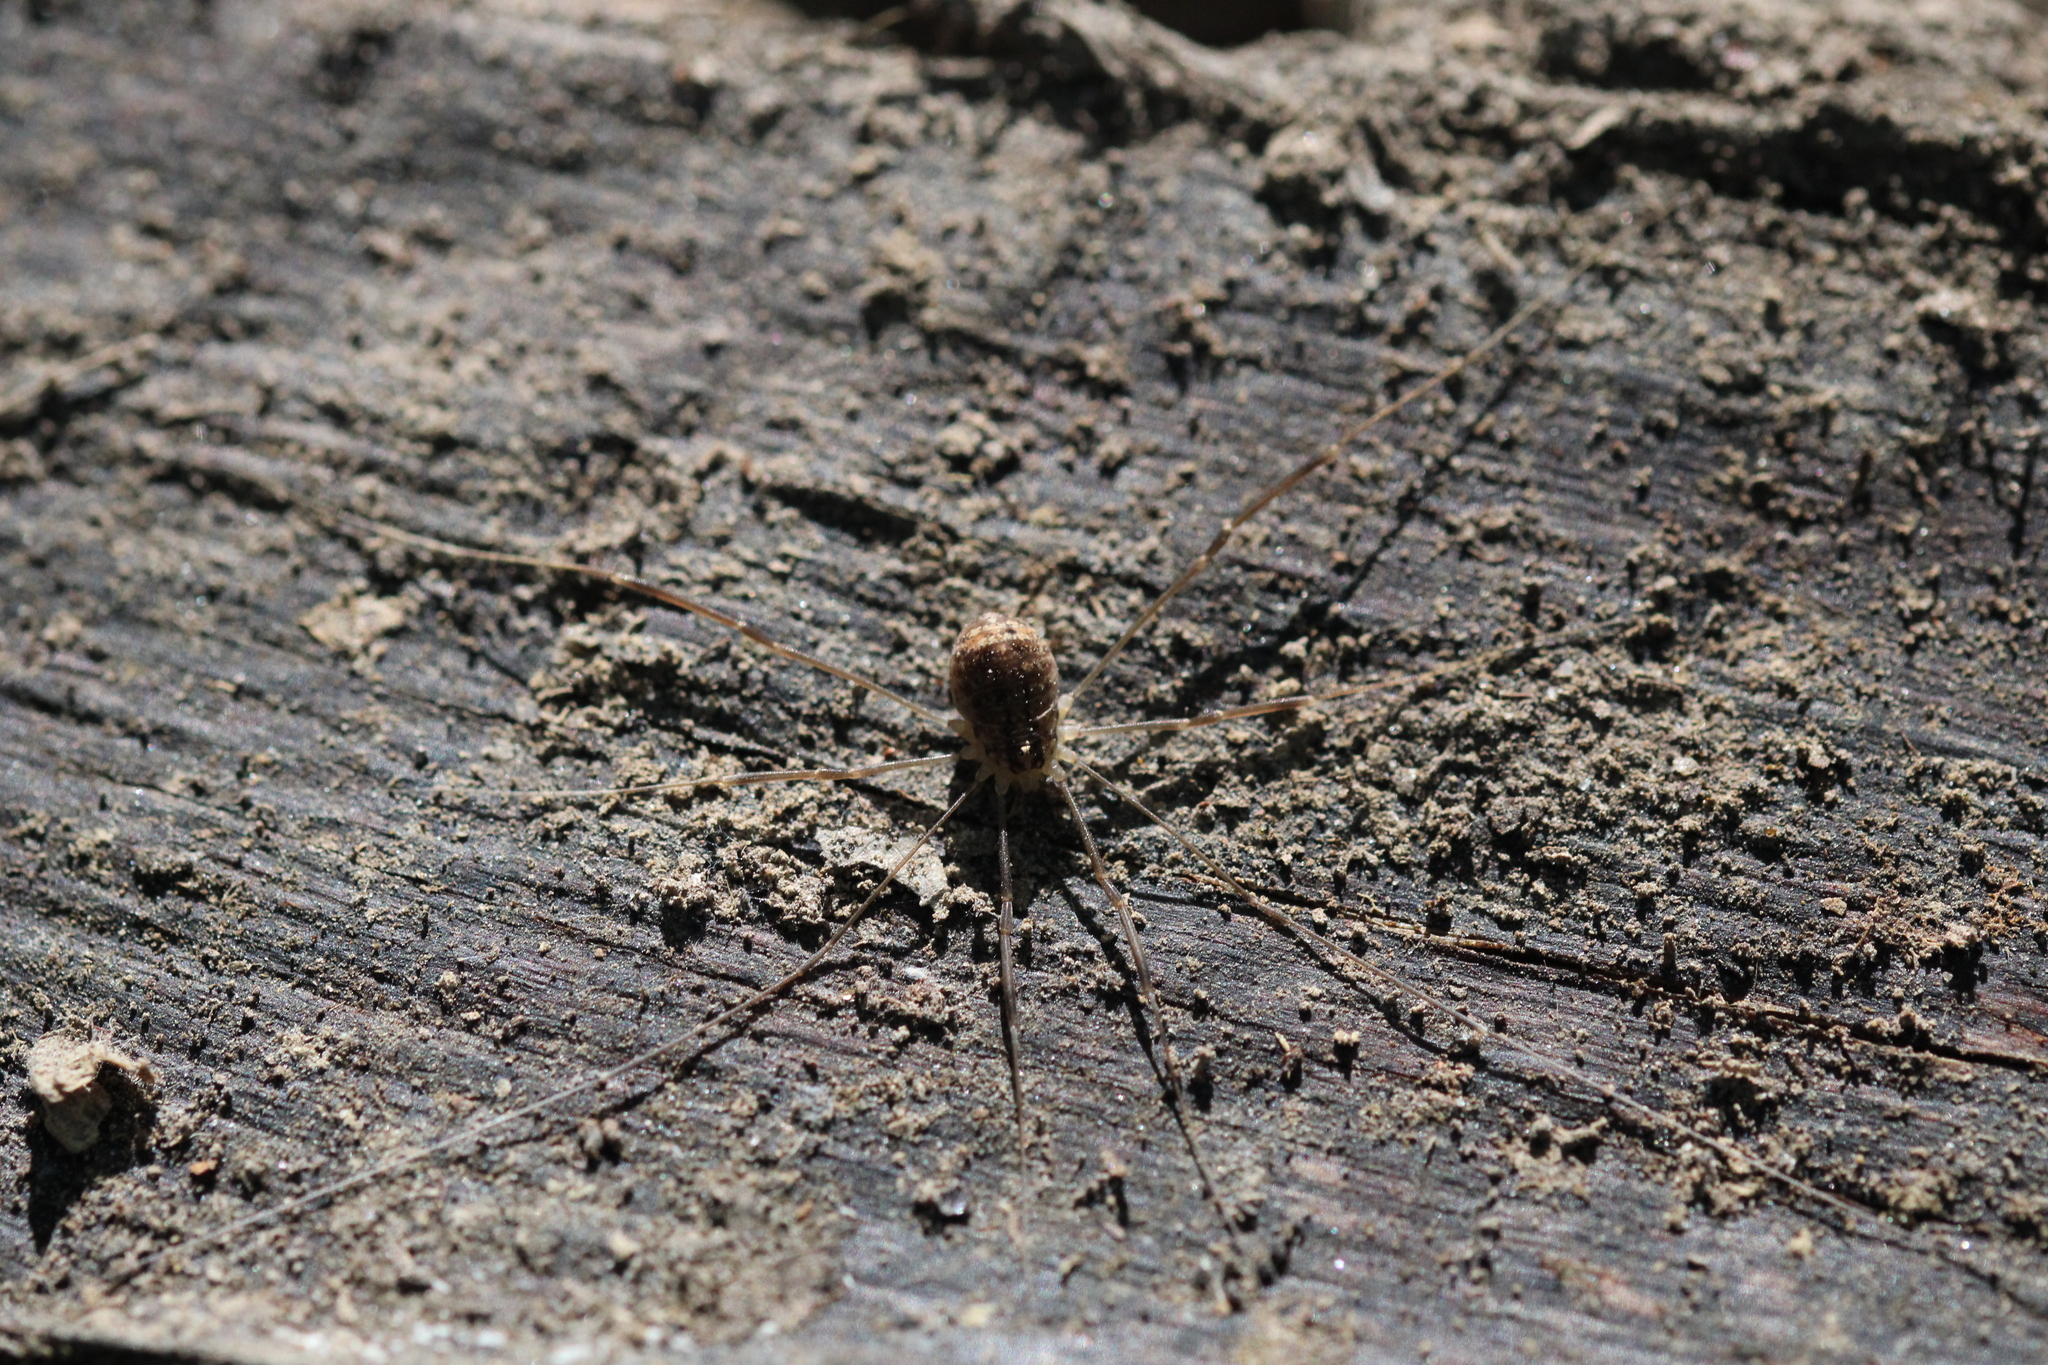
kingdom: Animalia
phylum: Arthropoda
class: Arachnida
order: Opiliones
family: Sclerosomatidae
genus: Nelima
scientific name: Nelima silvatica
